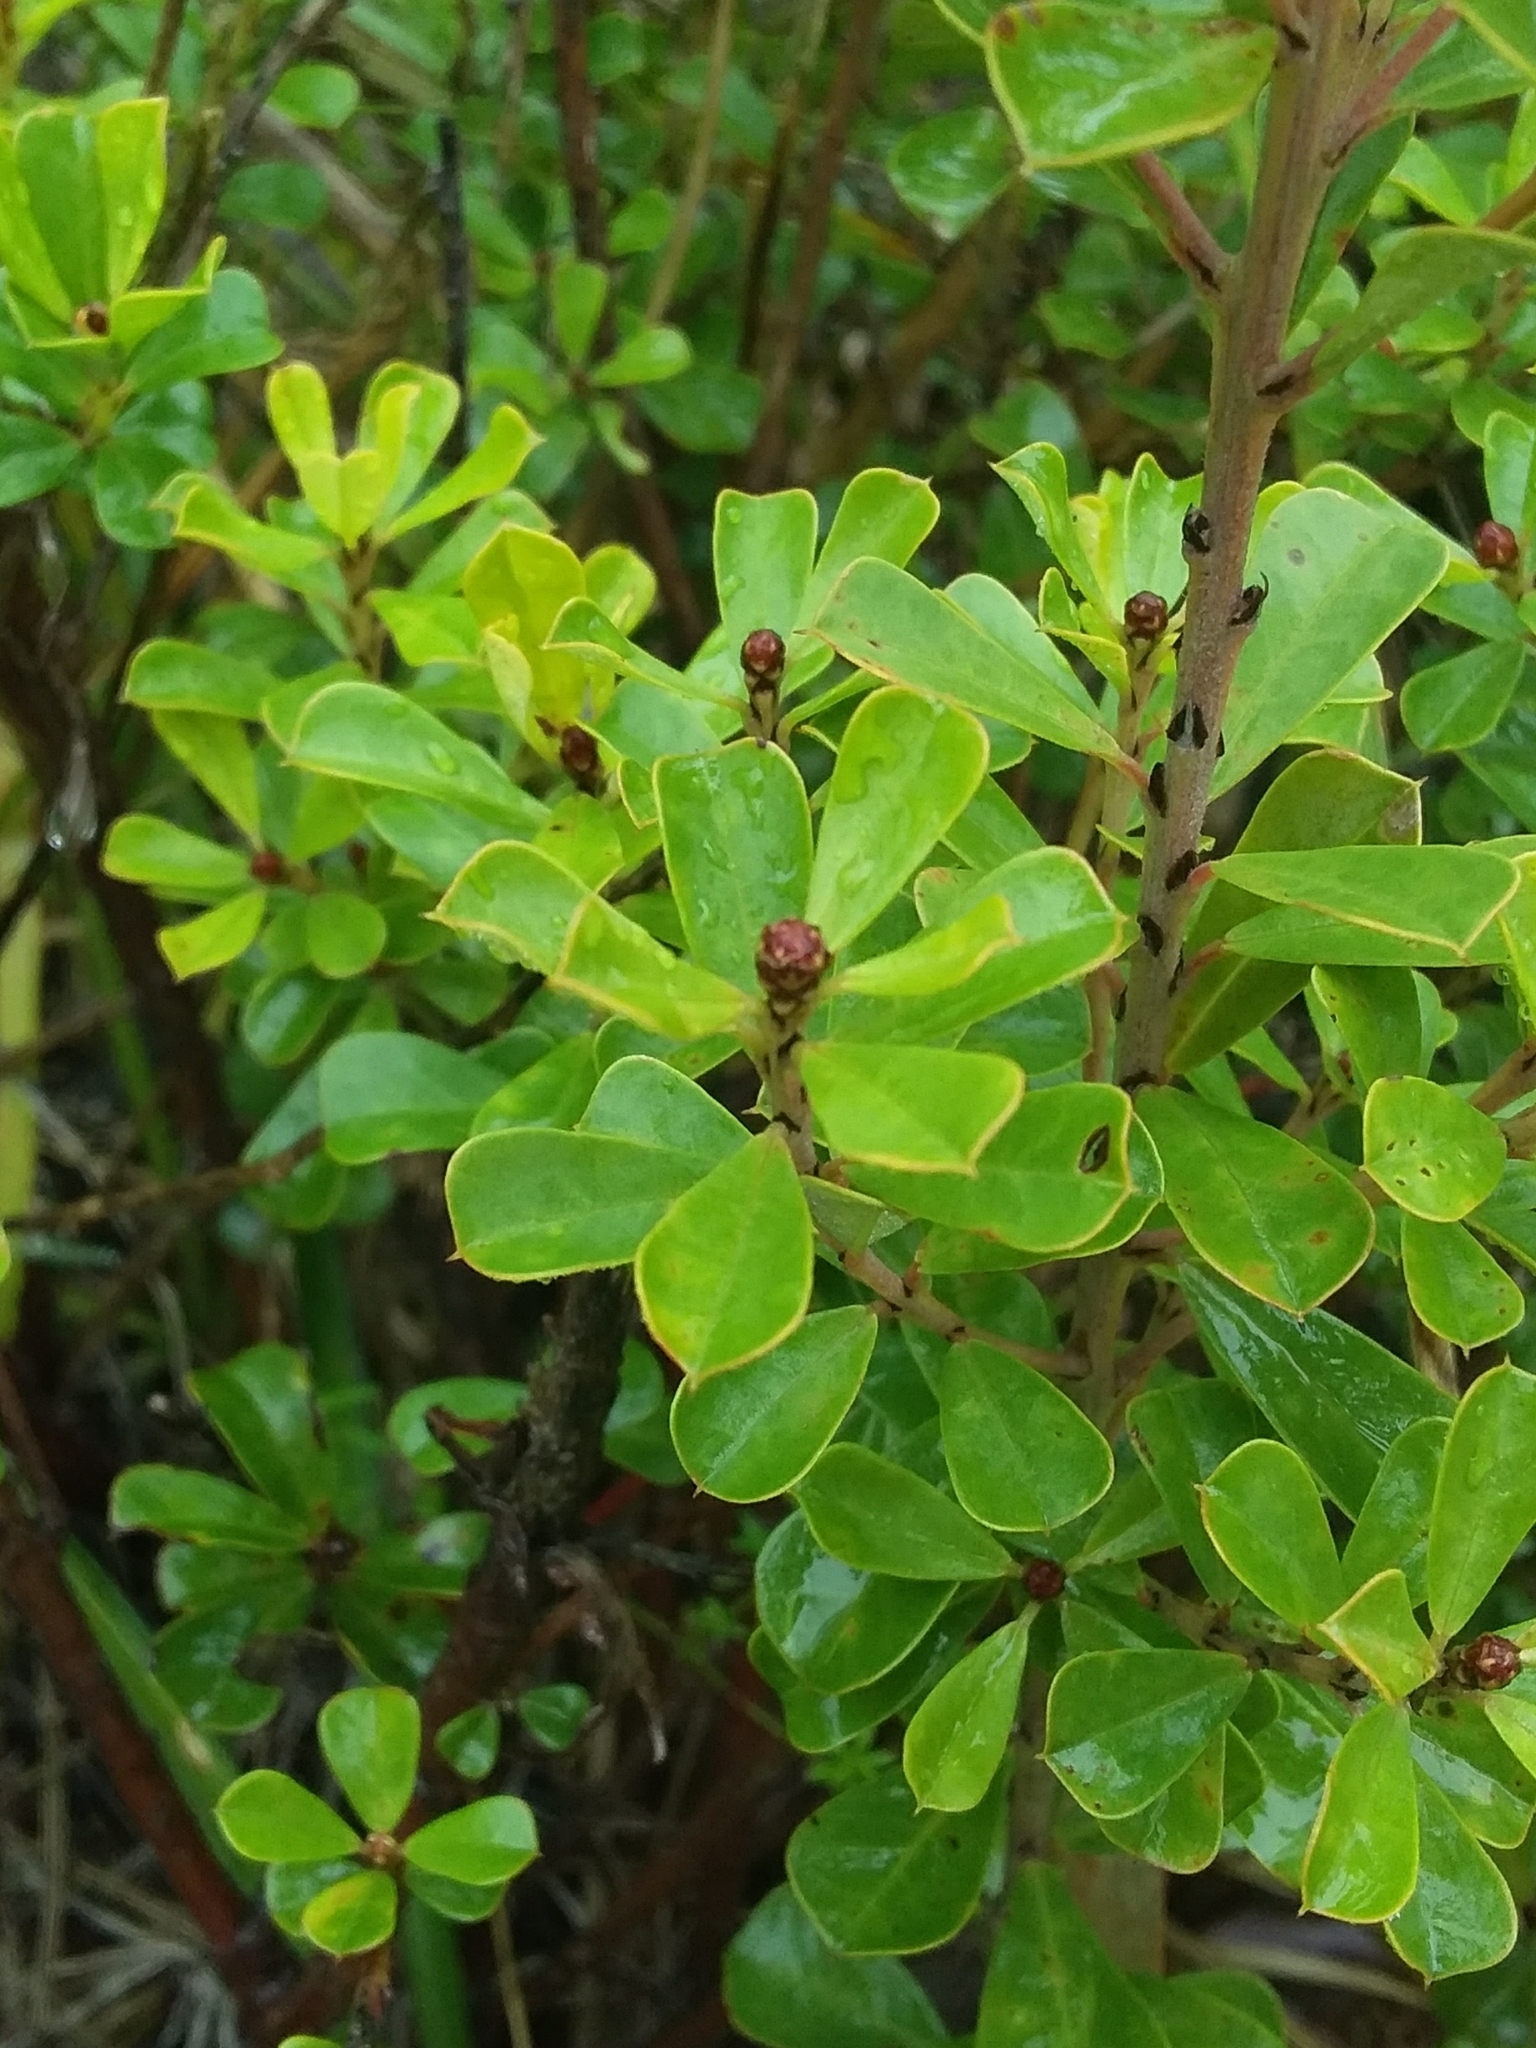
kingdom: Plantae
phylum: Tracheophyta
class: Magnoliopsida
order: Fabales
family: Fabaceae
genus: Pultenaea
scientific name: Pultenaea daphnoides
